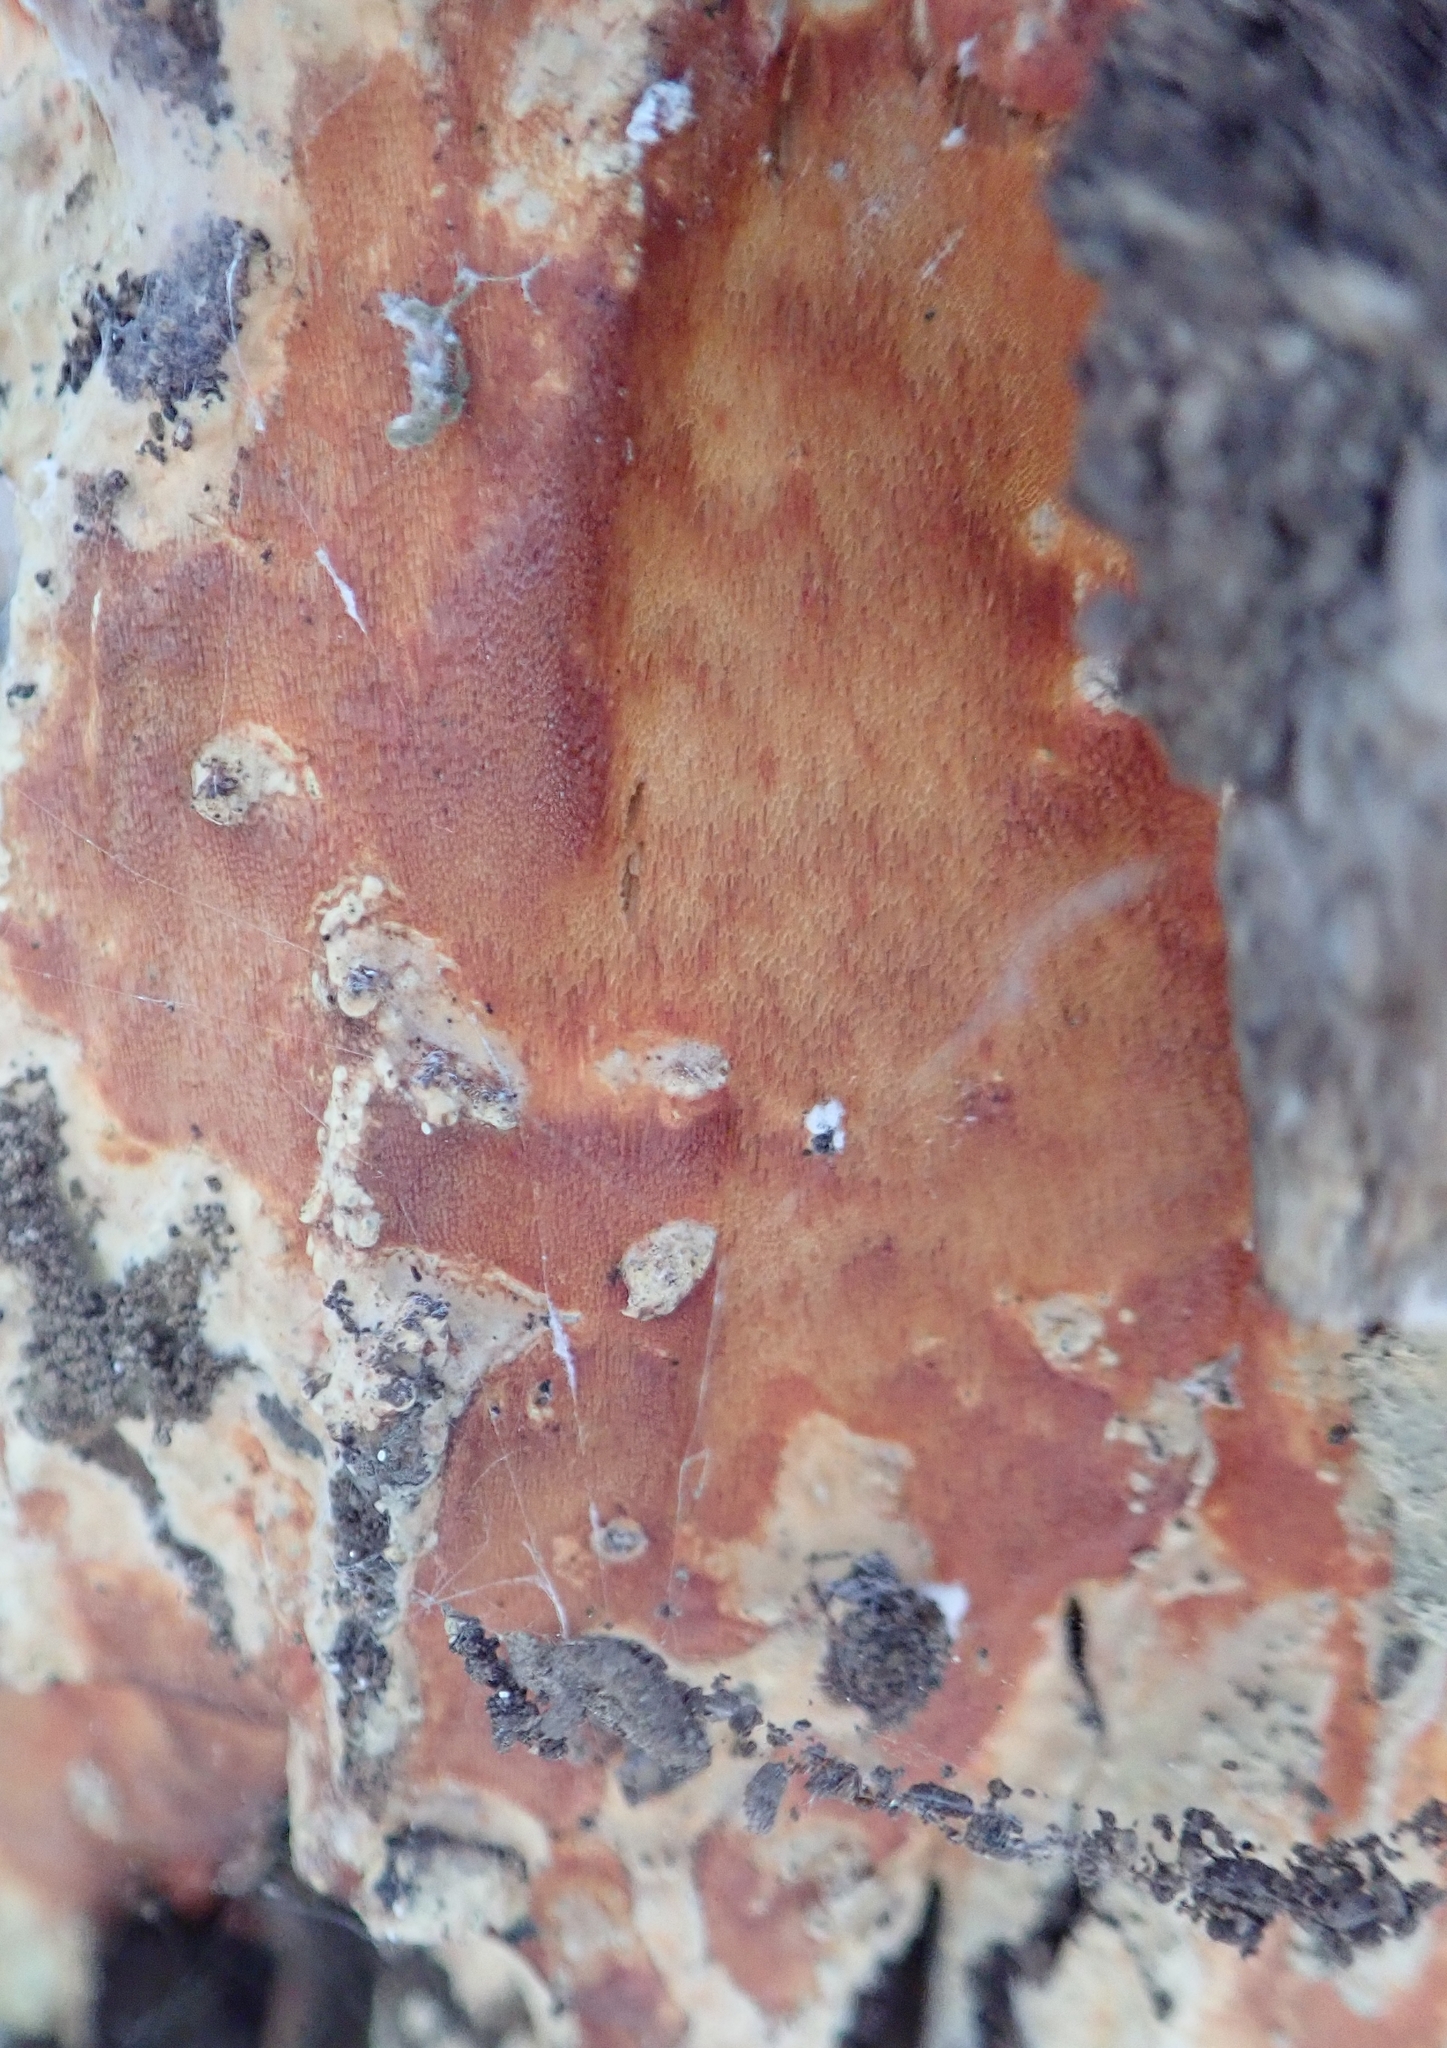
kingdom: Fungi
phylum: Basidiomycota
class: Agaricomycetes
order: Polyporales
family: Irpicaceae
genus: Ceriporia
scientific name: Ceriporia spissa
